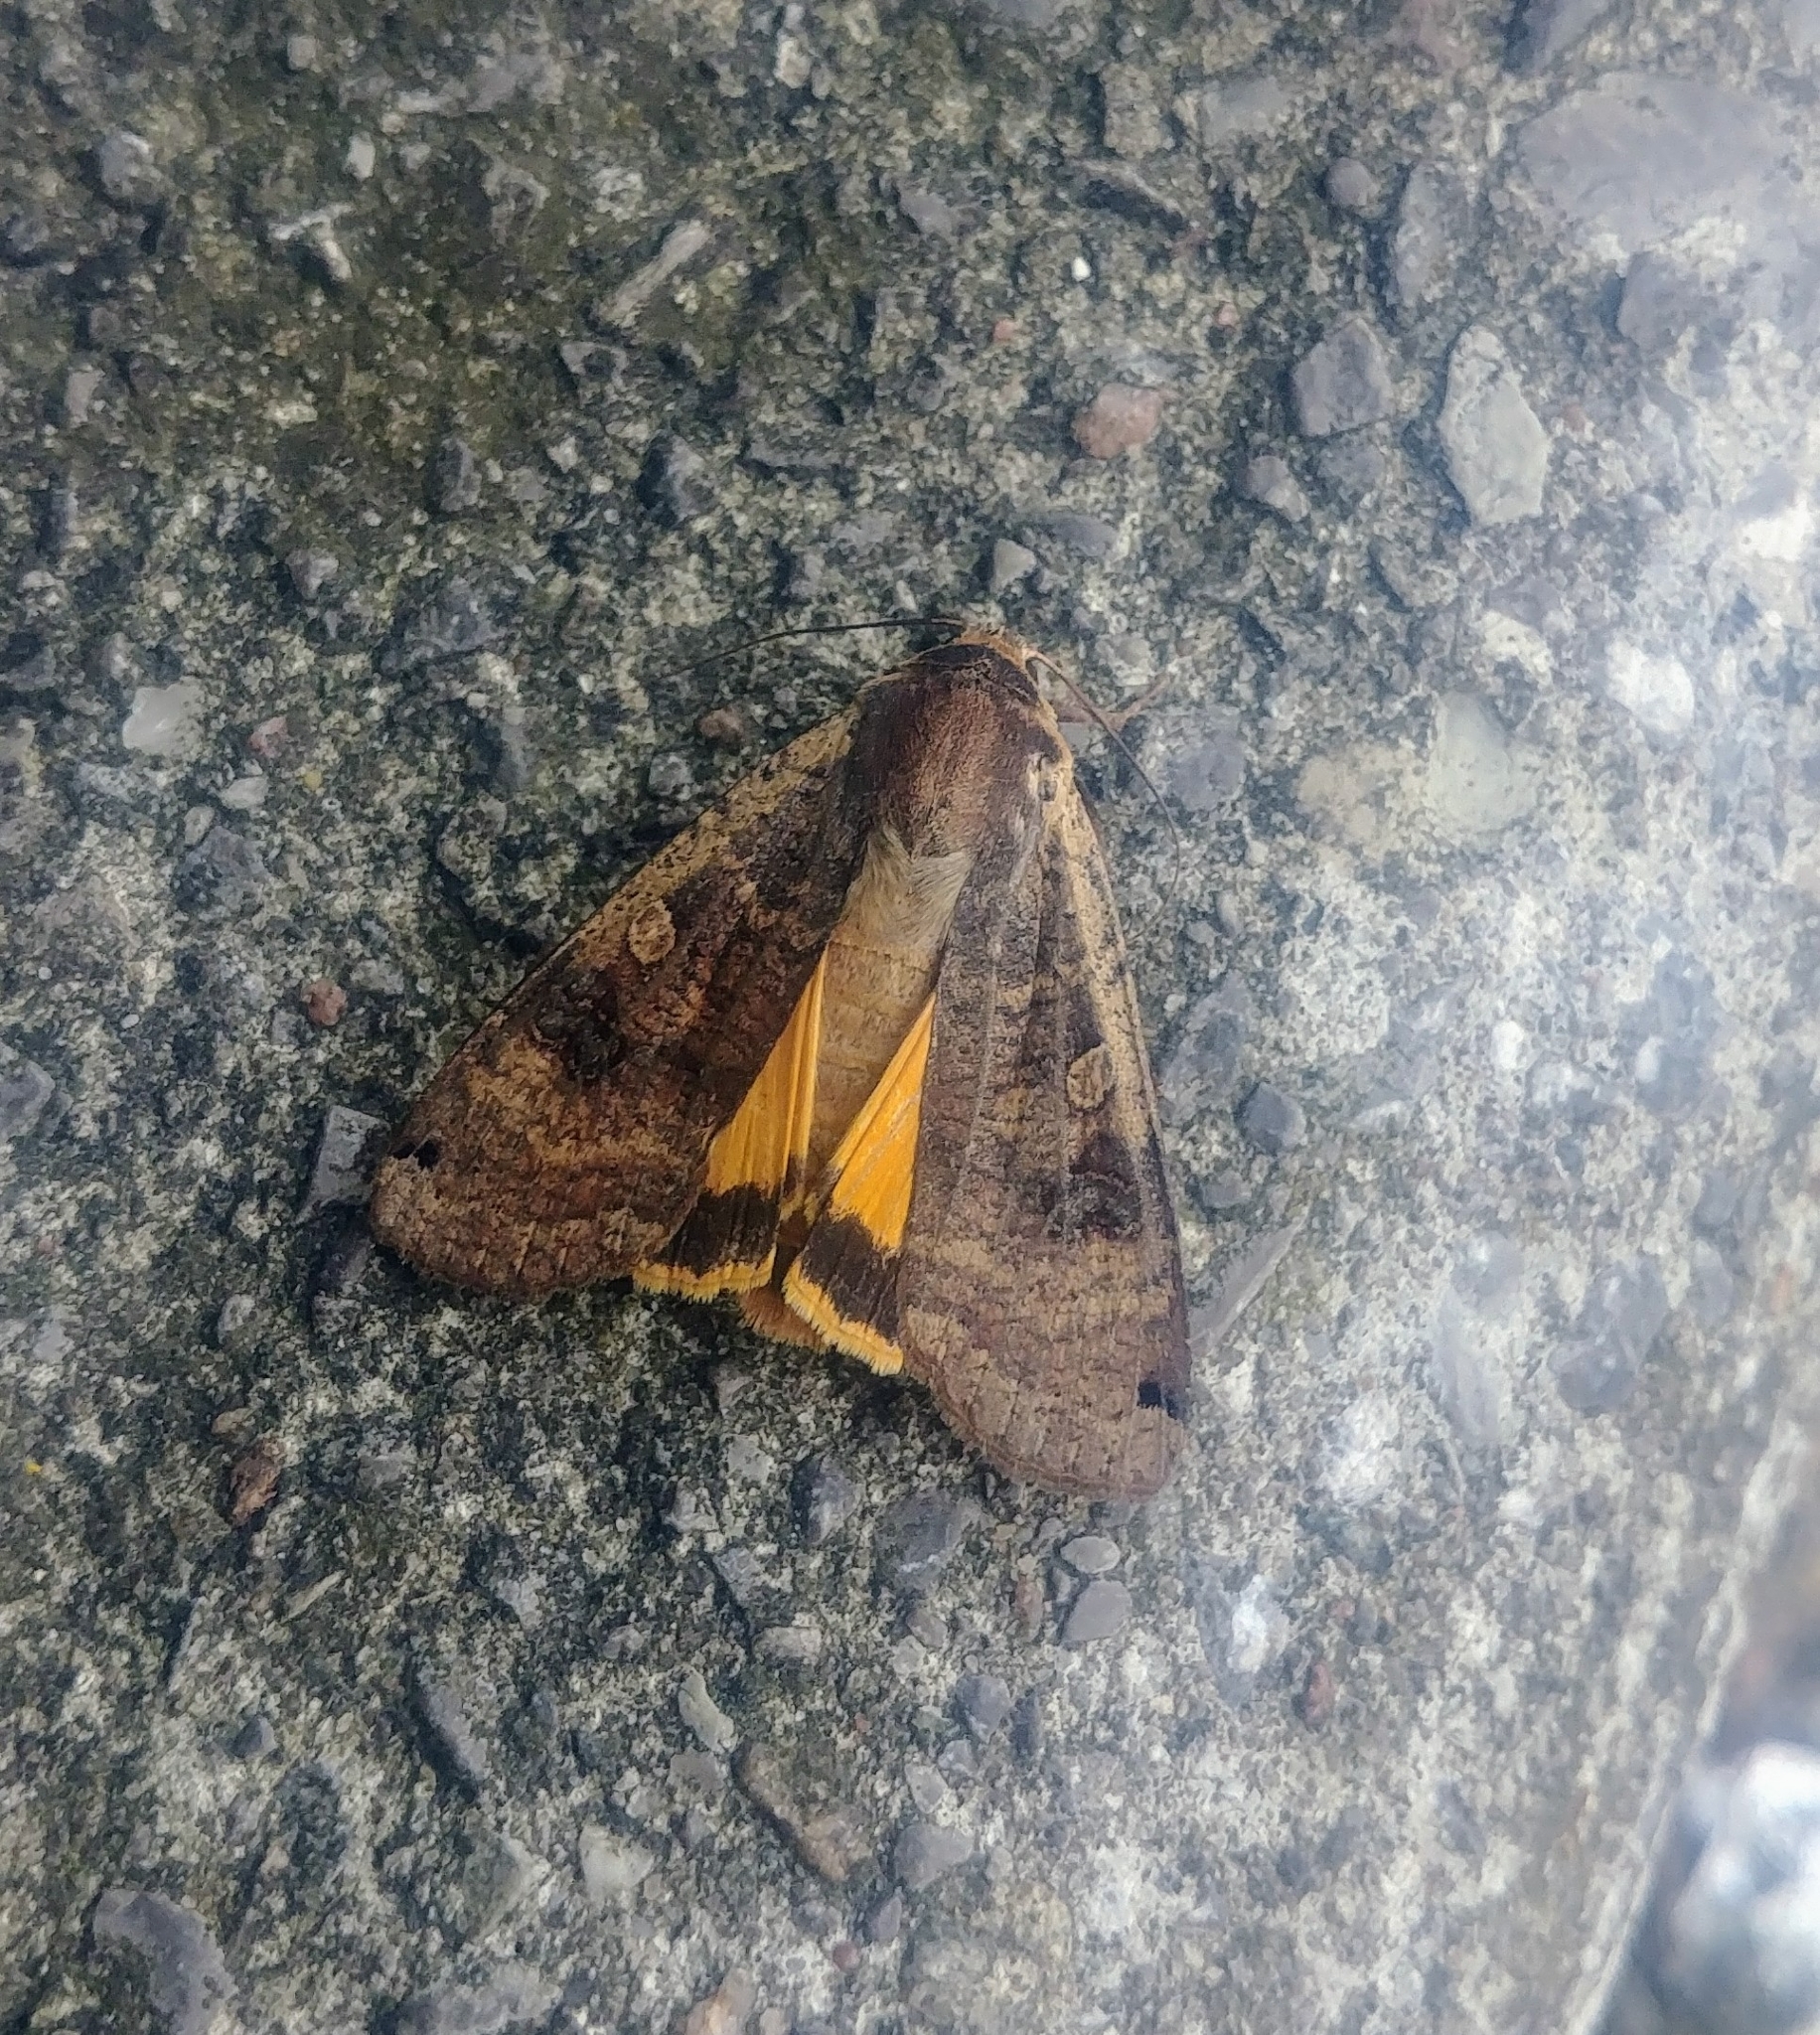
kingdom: Animalia
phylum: Arthropoda
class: Insecta
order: Lepidoptera
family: Noctuidae
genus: Noctua
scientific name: Noctua pronuba
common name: Large yellow underwing
